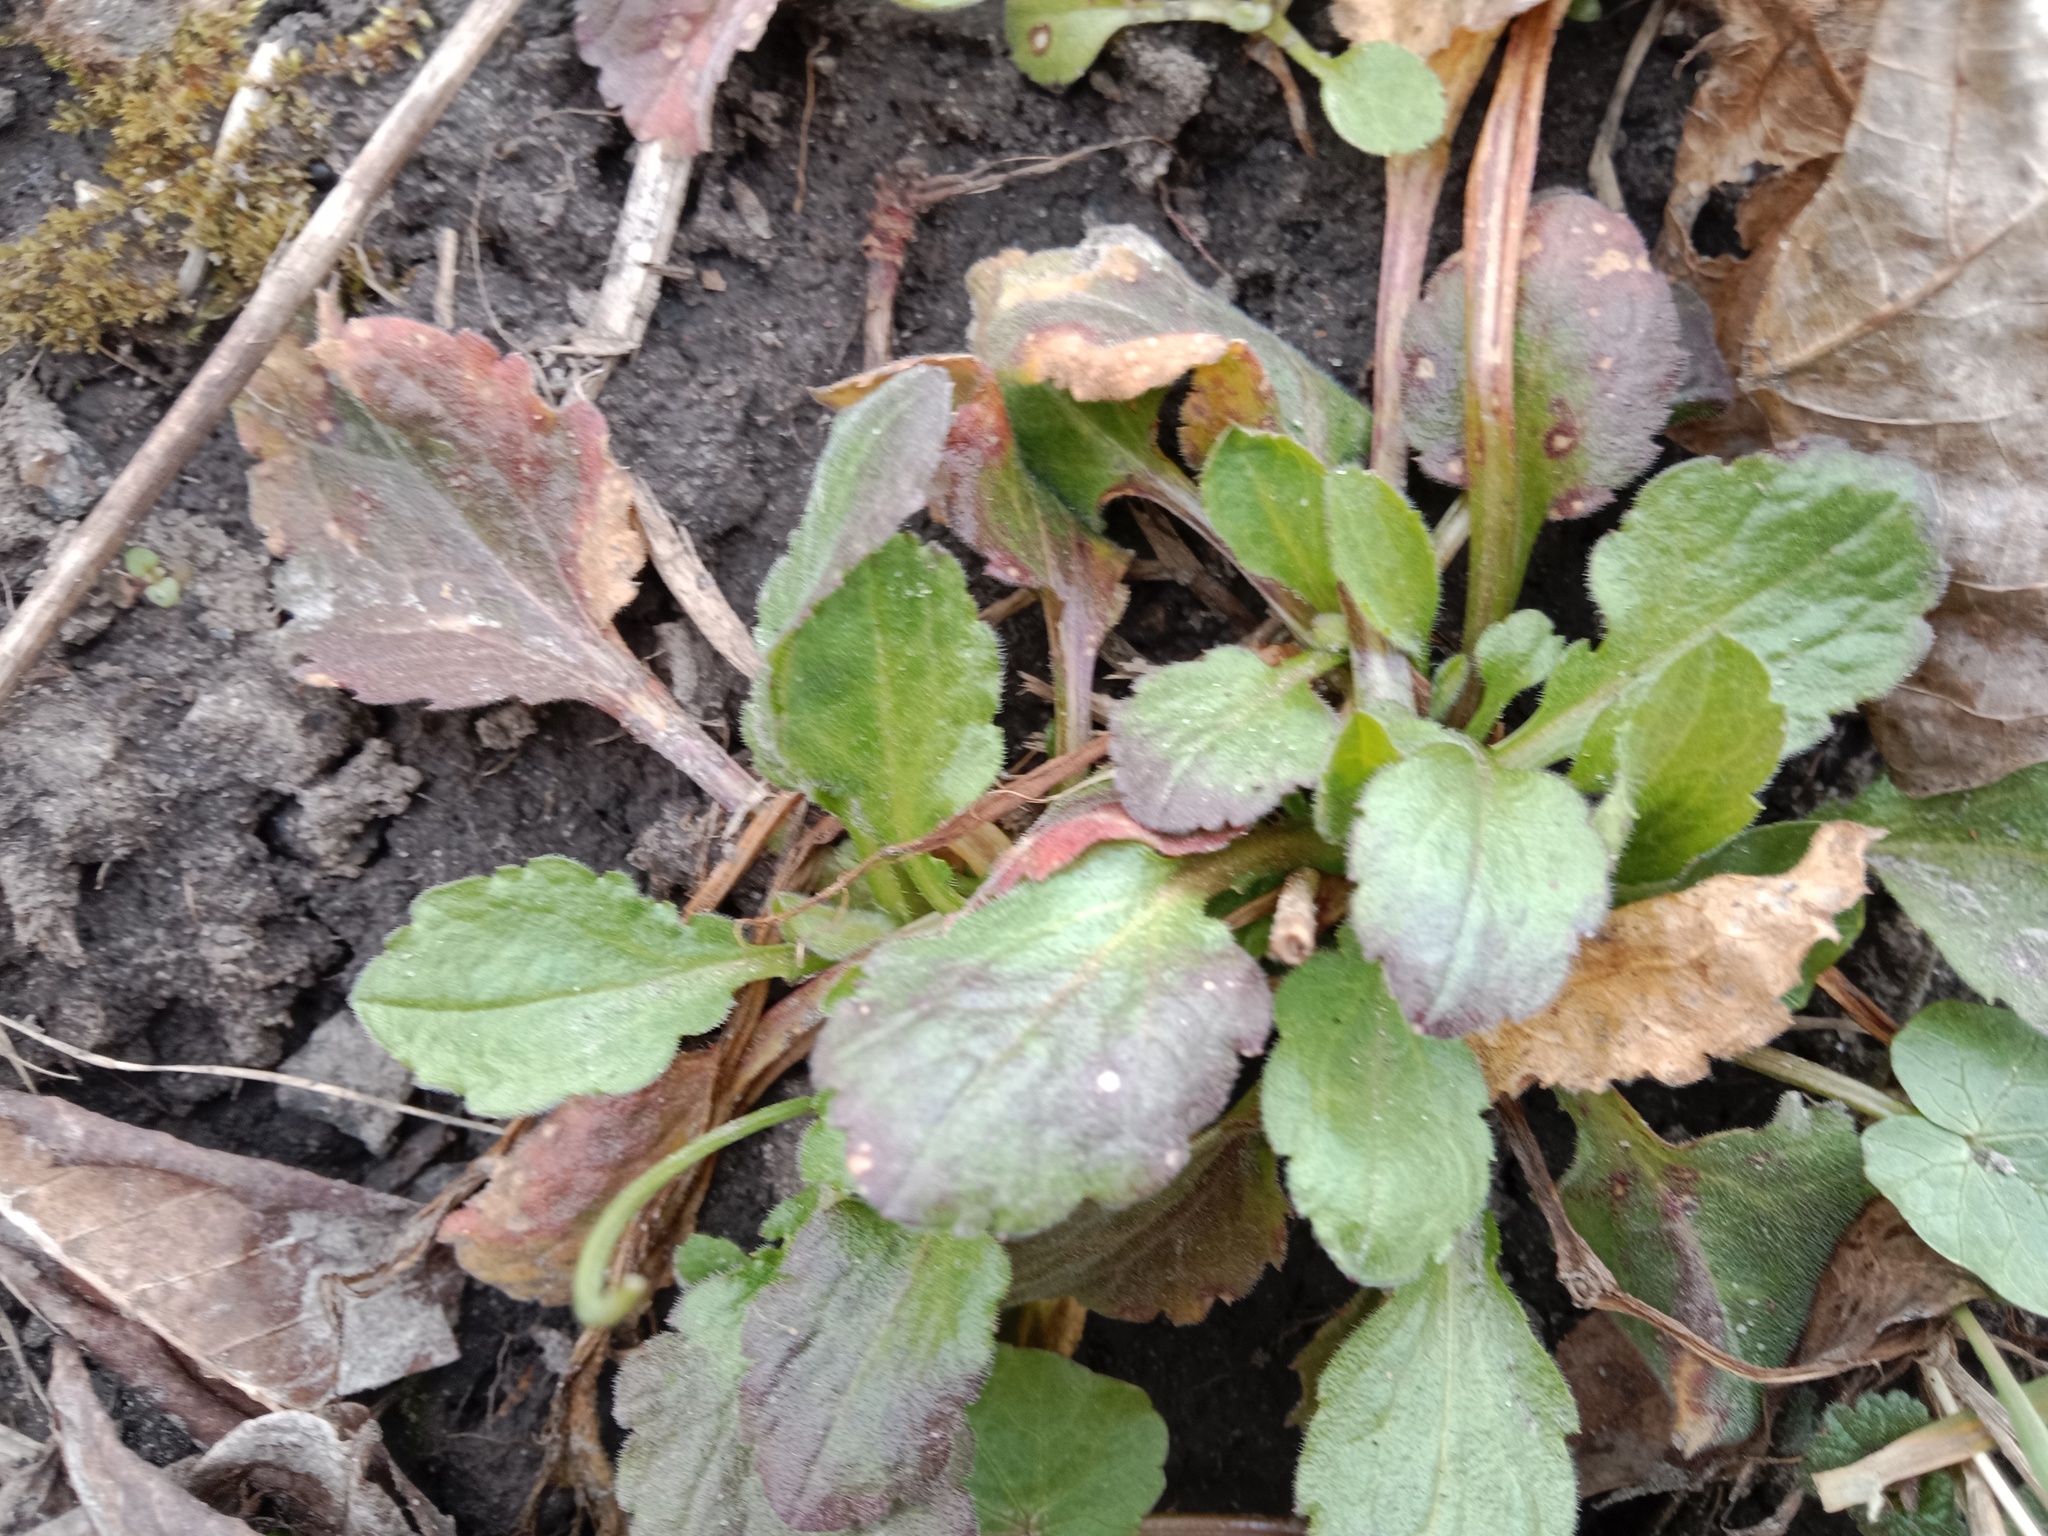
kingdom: Plantae
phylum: Tracheophyta
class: Magnoliopsida
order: Asterales
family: Asteraceae
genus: Erigeron
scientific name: Erigeron annuus
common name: Tall fleabane
